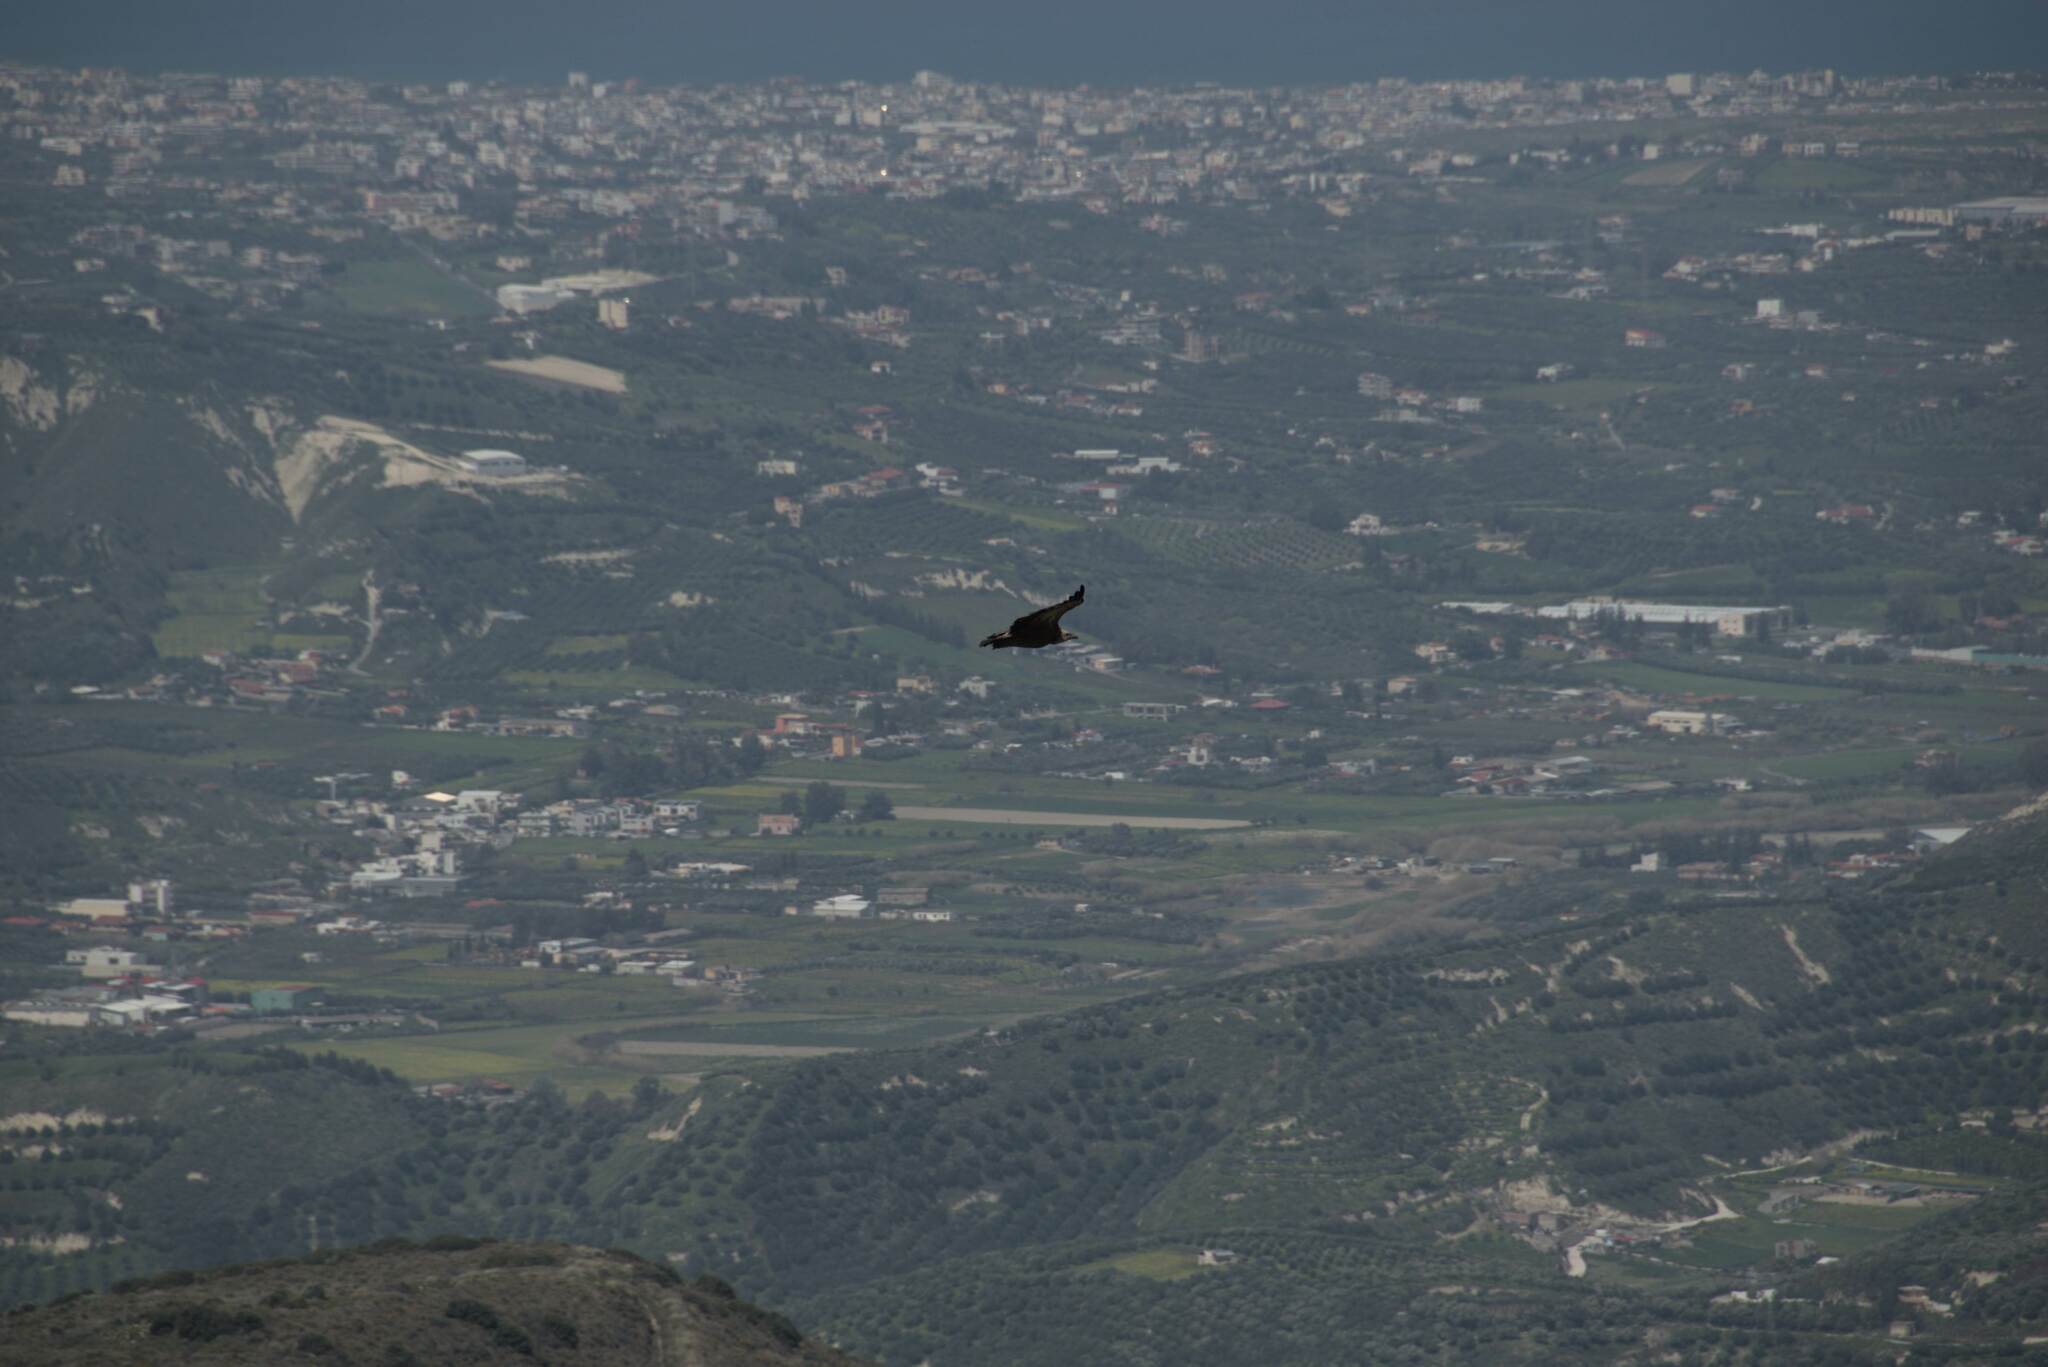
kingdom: Animalia
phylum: Chordata
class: Aves
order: Accipitriformes
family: Accipitridae
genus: Gyps
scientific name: Gyps fulvus
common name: Griffon vulture
